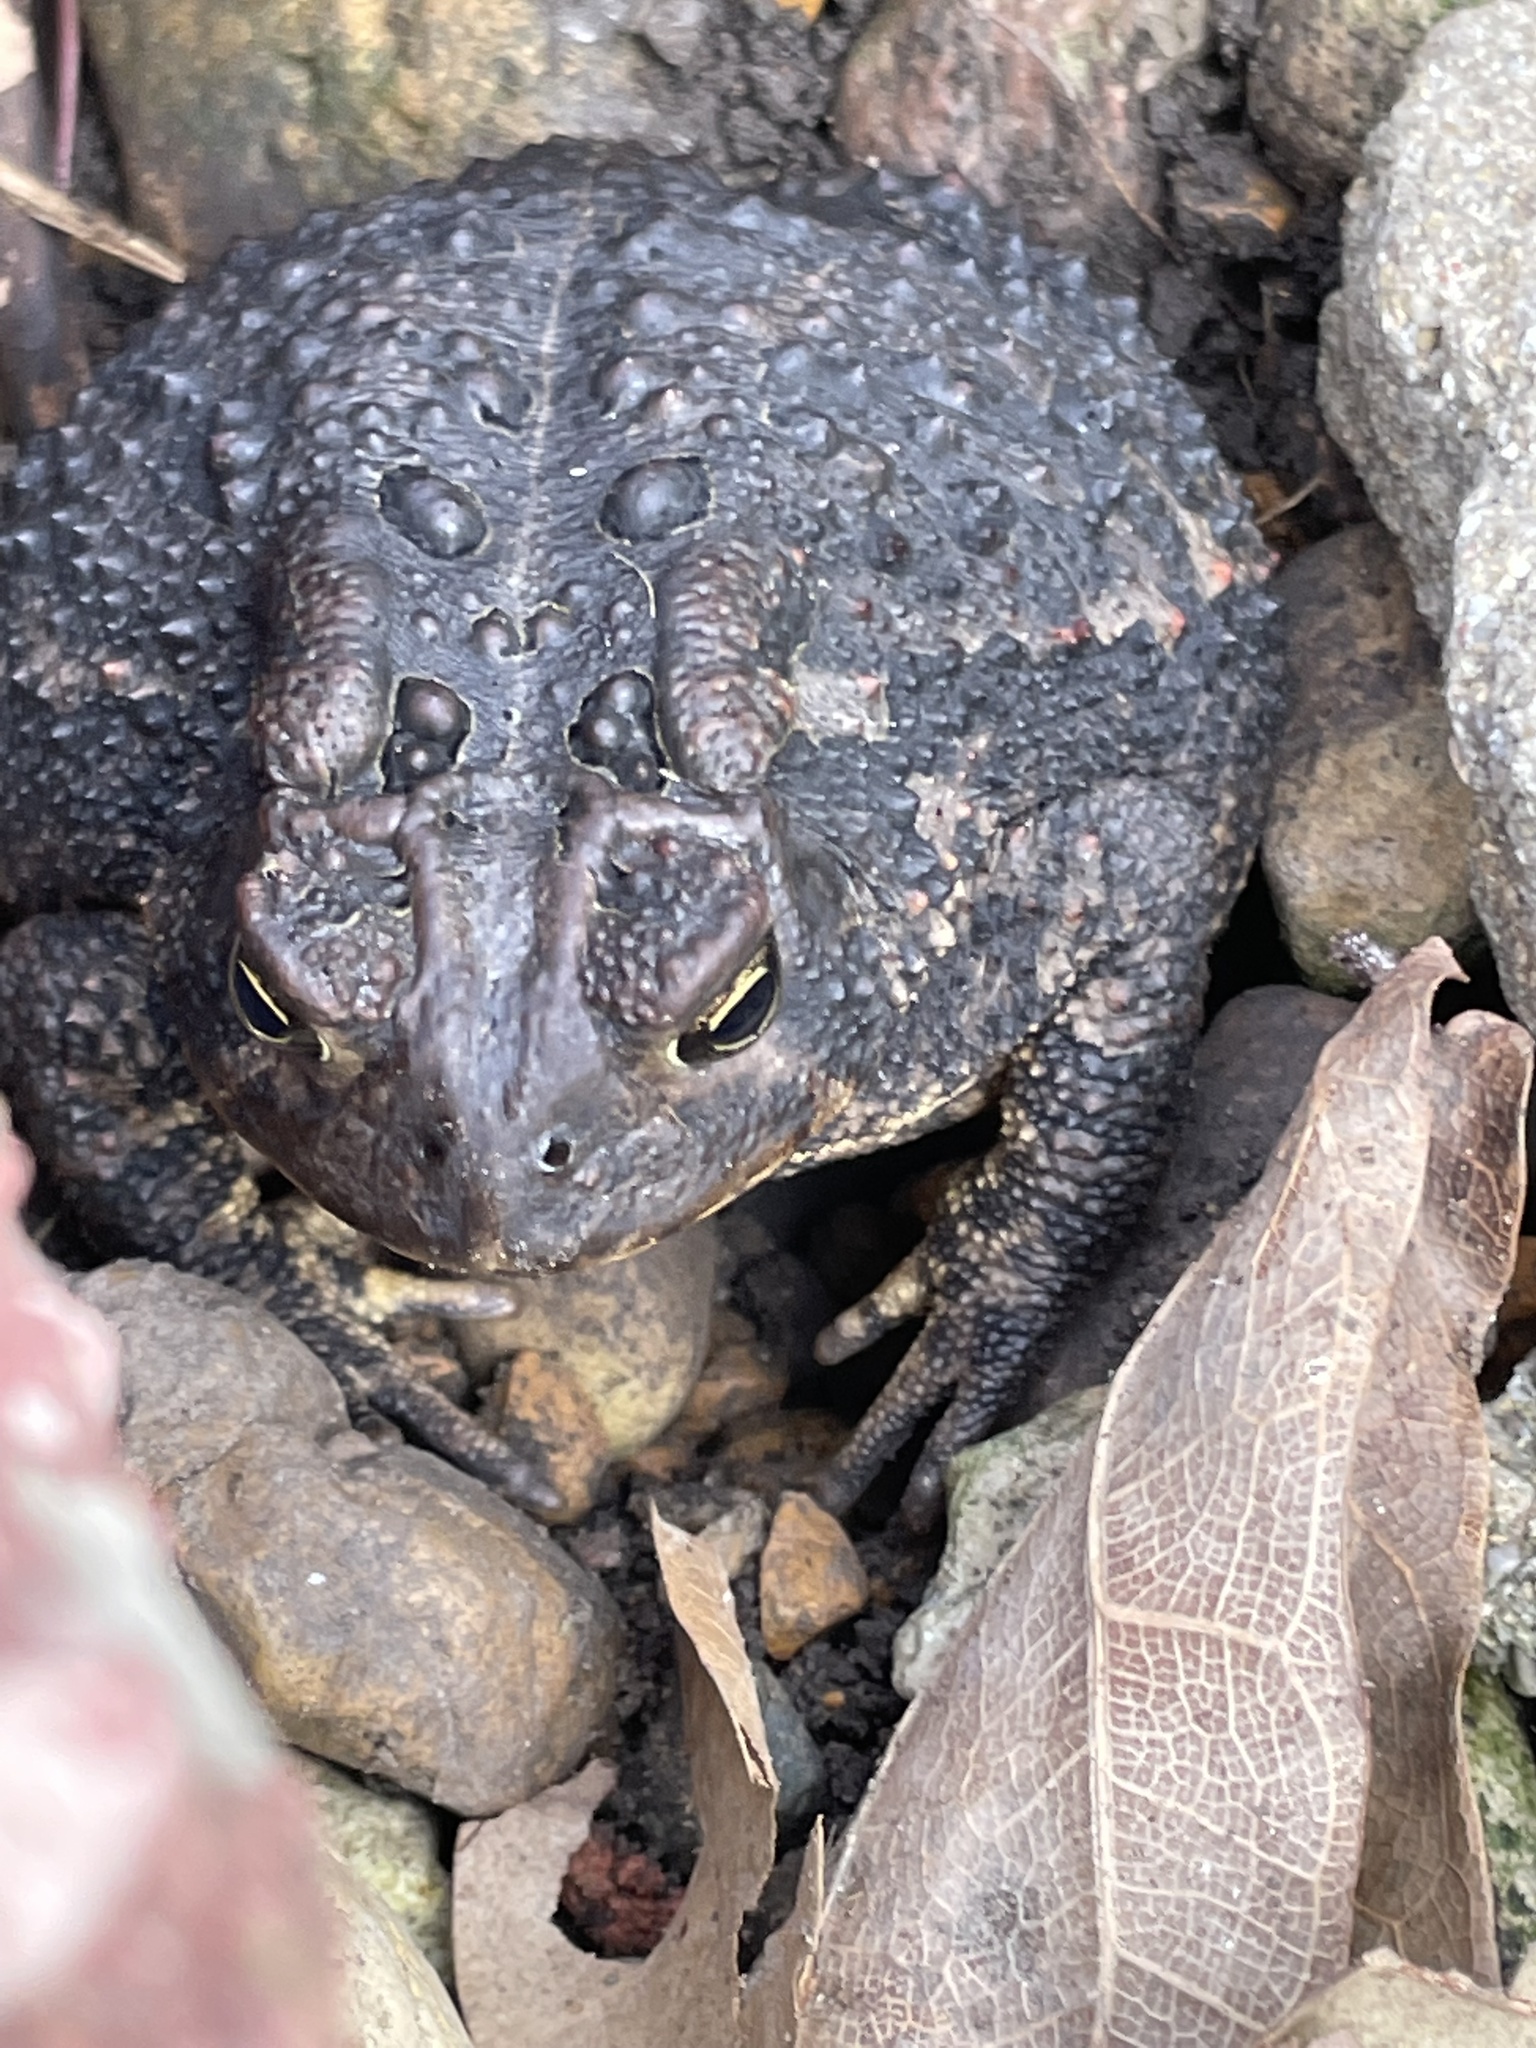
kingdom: Animalia
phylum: Chordata
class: Amphibia
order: Anura
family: Bufonidae
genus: Anaxyrus
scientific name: Anaxyrus americanus
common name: American toad
